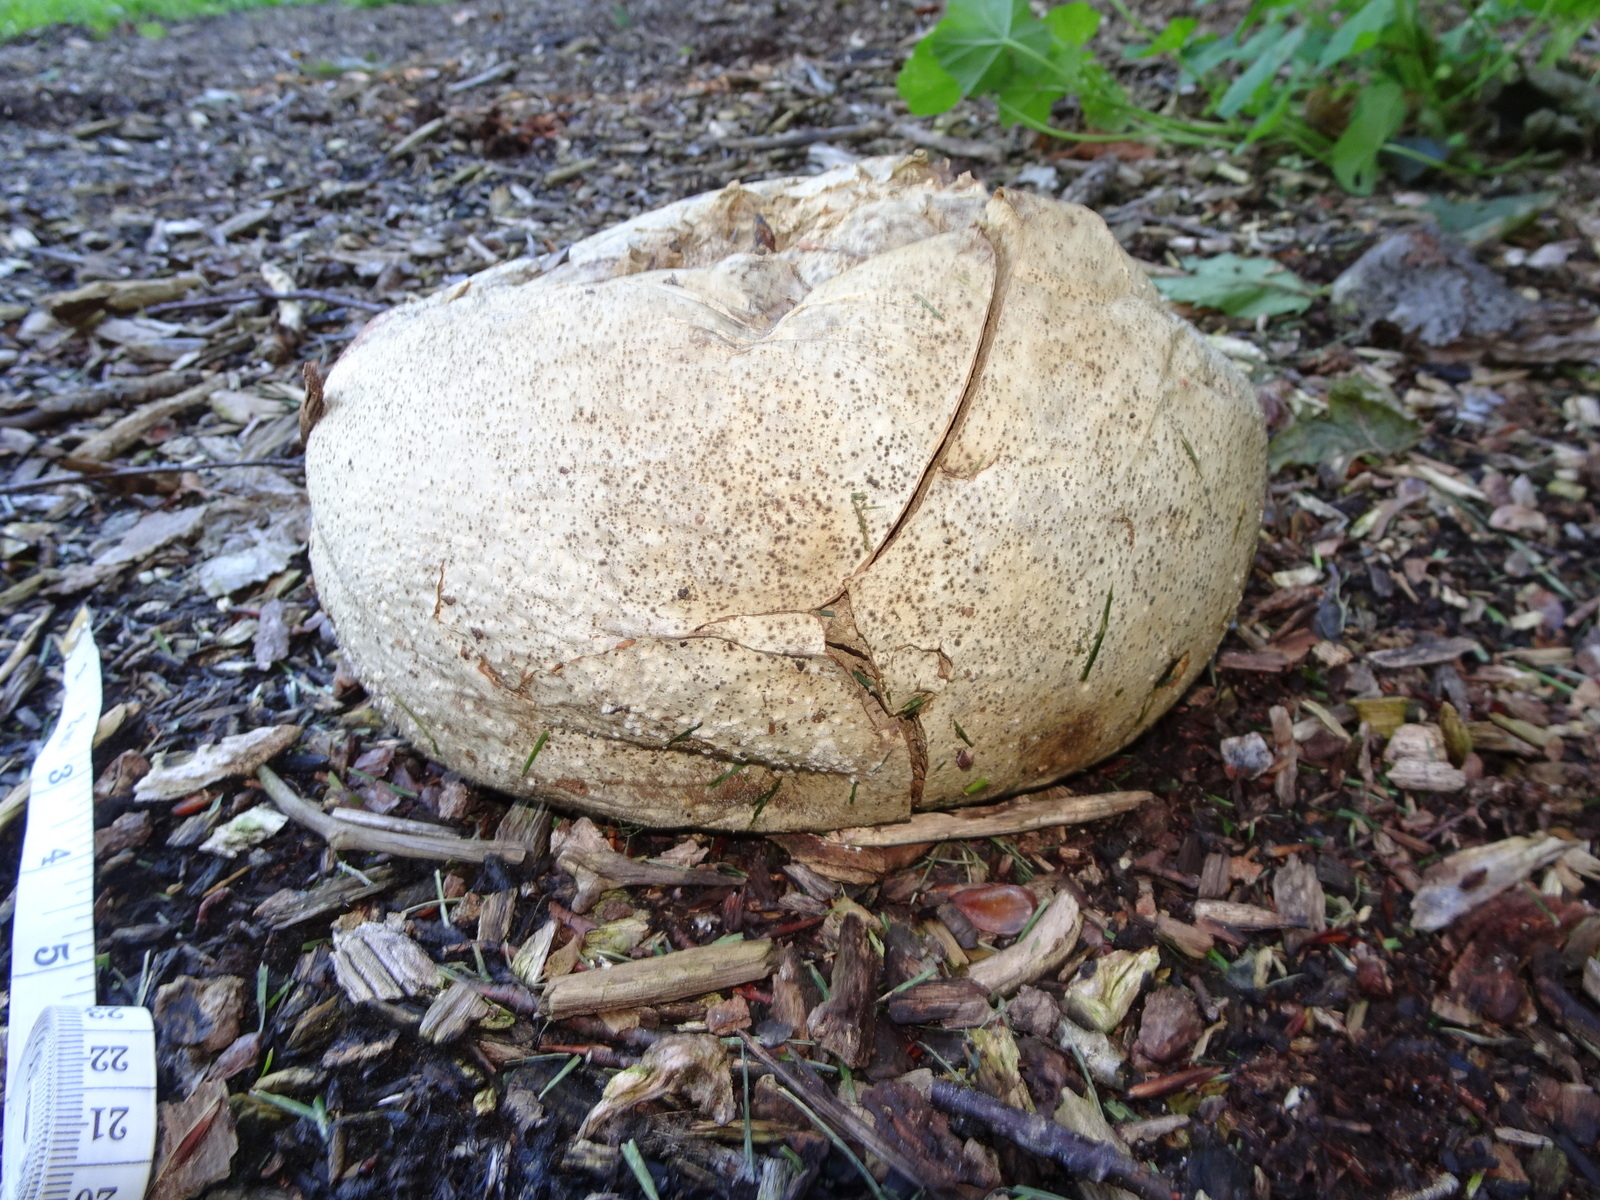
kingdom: Fungi
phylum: Basidiomycota
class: Agaricomycetes
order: Agaricales
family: Lycoperdaceae
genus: Calvatia
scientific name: Calvatia gigantea
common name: Giant puffball
